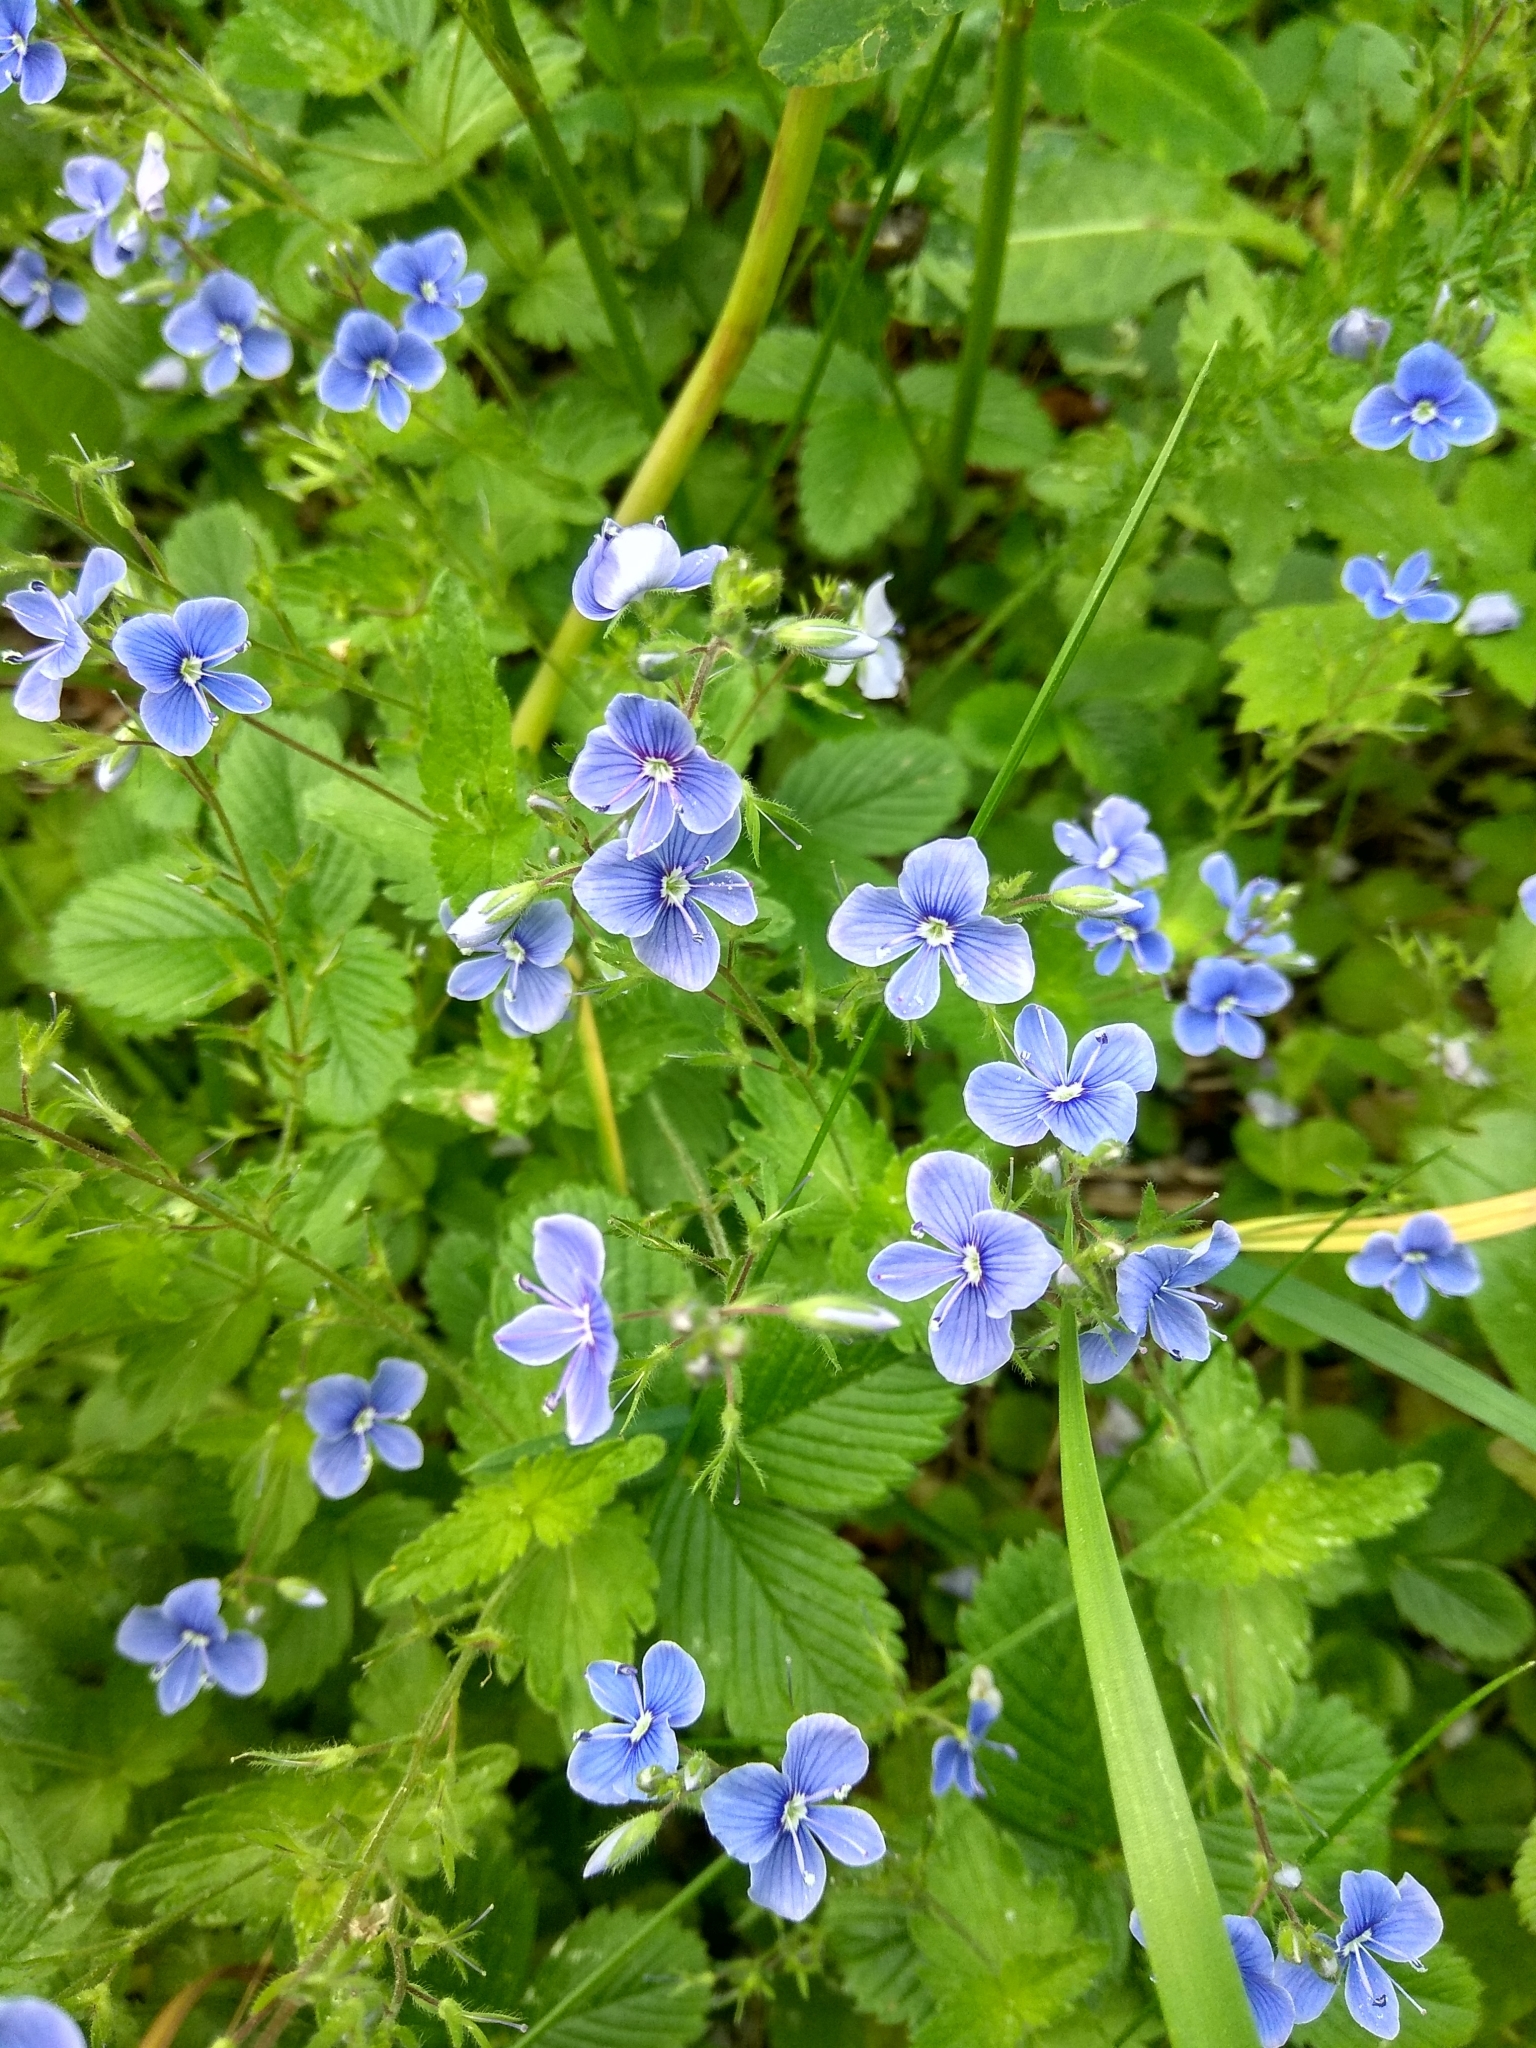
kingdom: Plantae
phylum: Tracheophyta
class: Magnoliopsida
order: Lamiales
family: Plantaginaceae
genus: Veronica
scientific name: Veronica chamaedrys
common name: Germander speedwell
